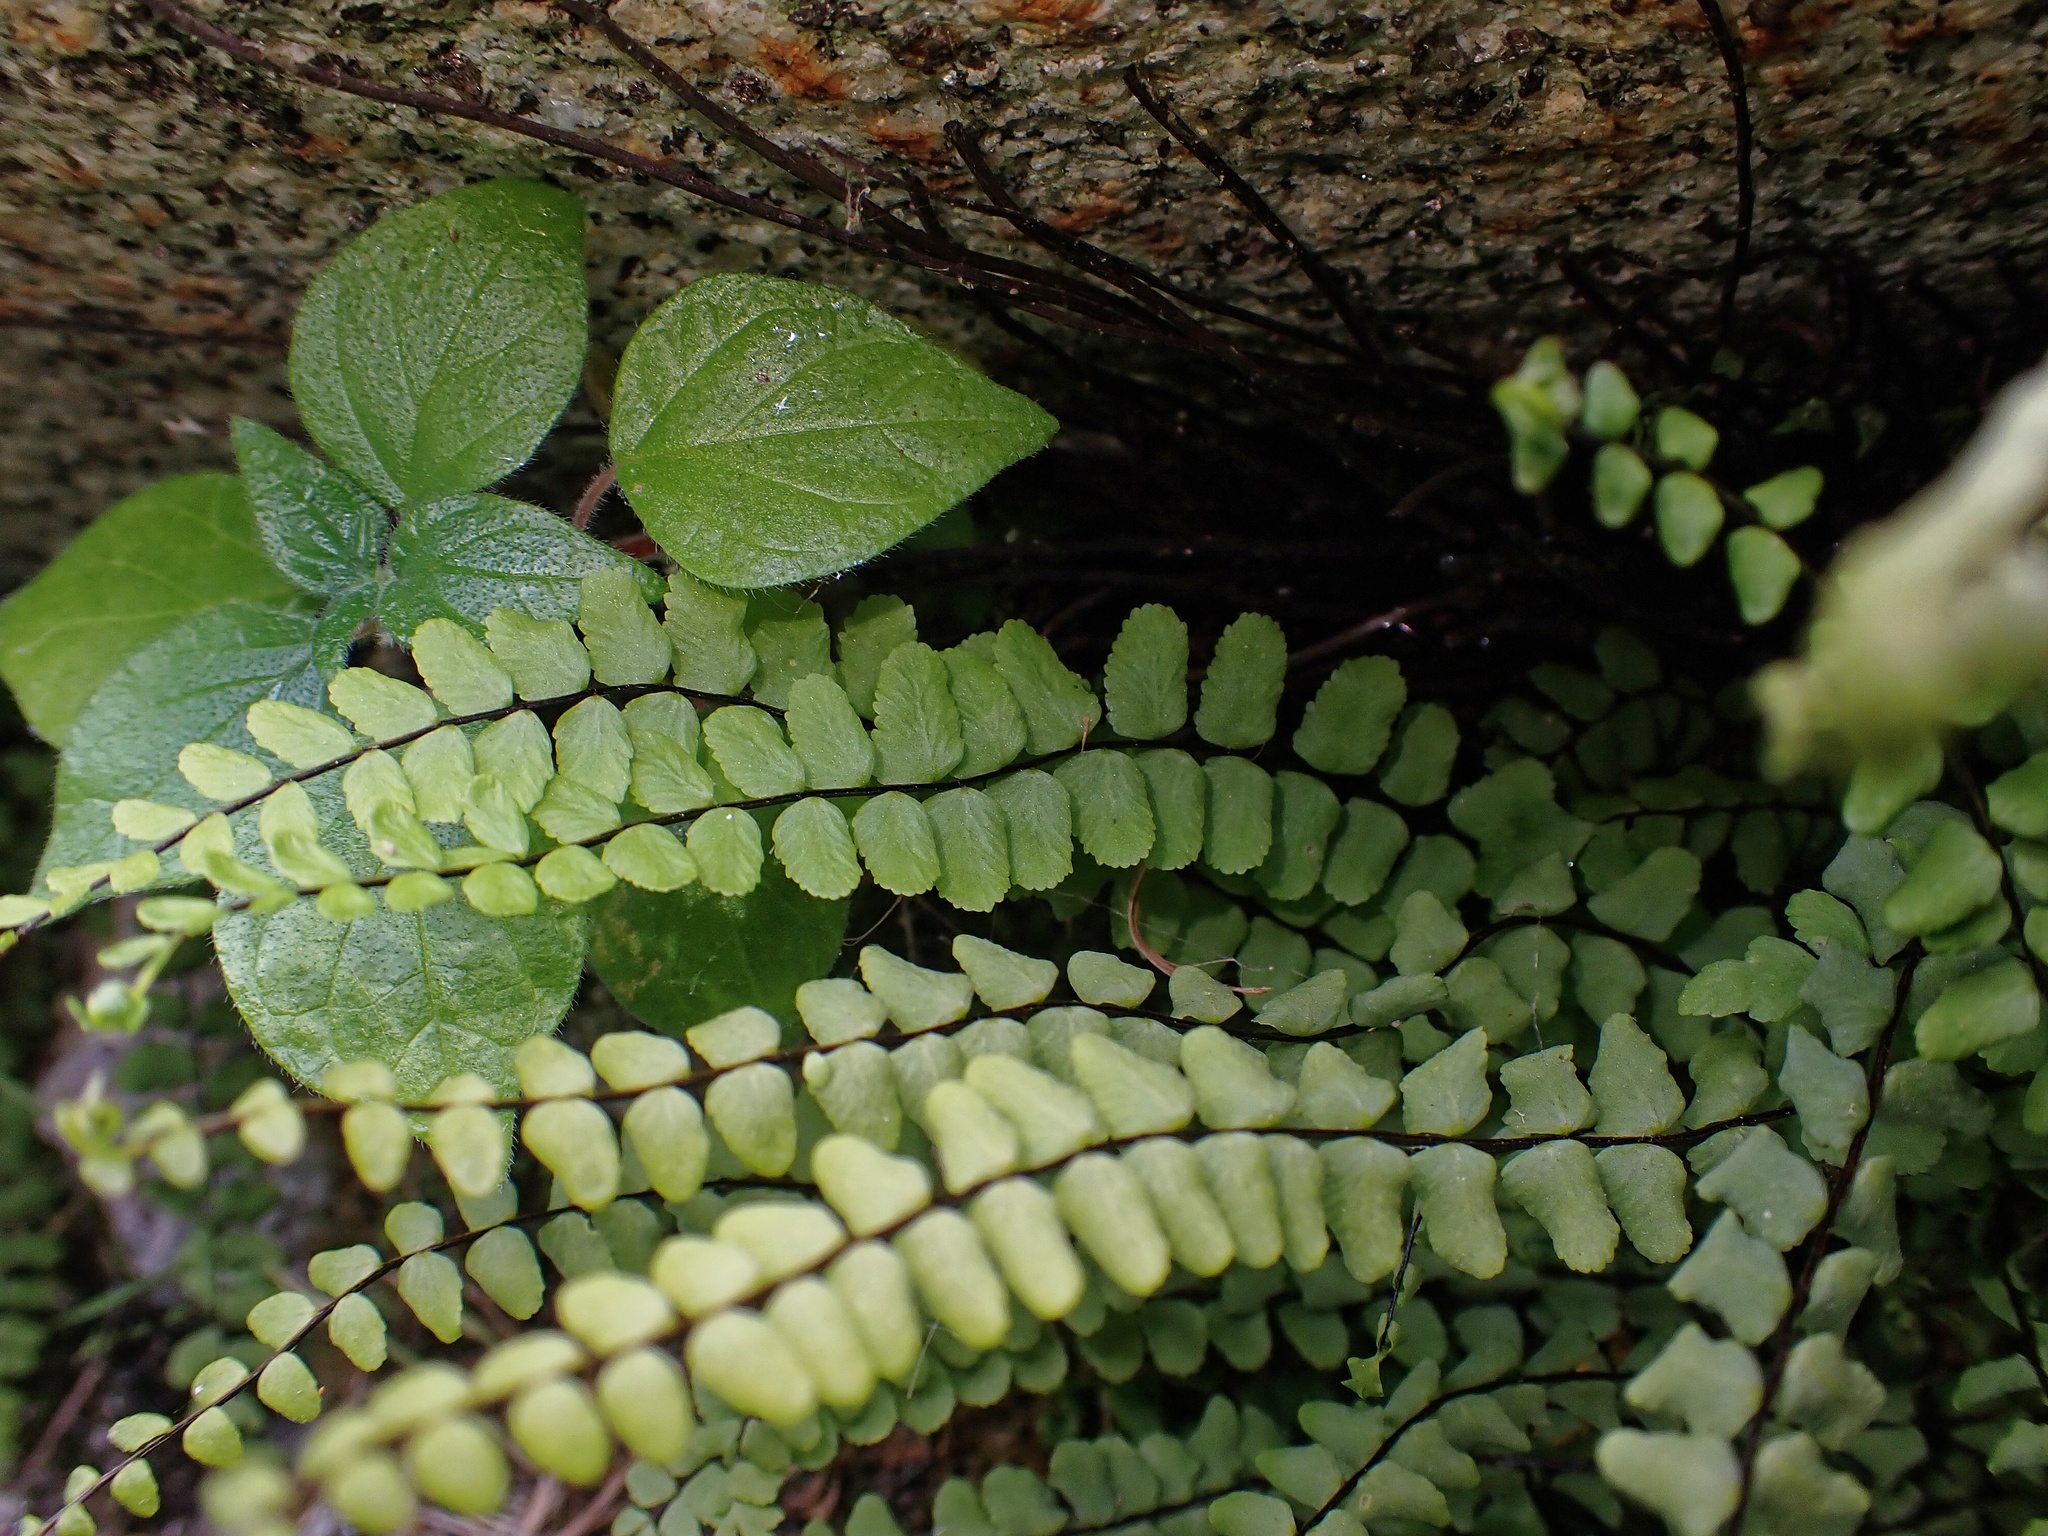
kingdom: Plantae
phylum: Tracheophyta
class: Polypodiopsida
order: Polypodiales
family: Aspleniaceae
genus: Asplenium
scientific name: Asplenium trichomanes
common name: Maidenhair spleenwort
